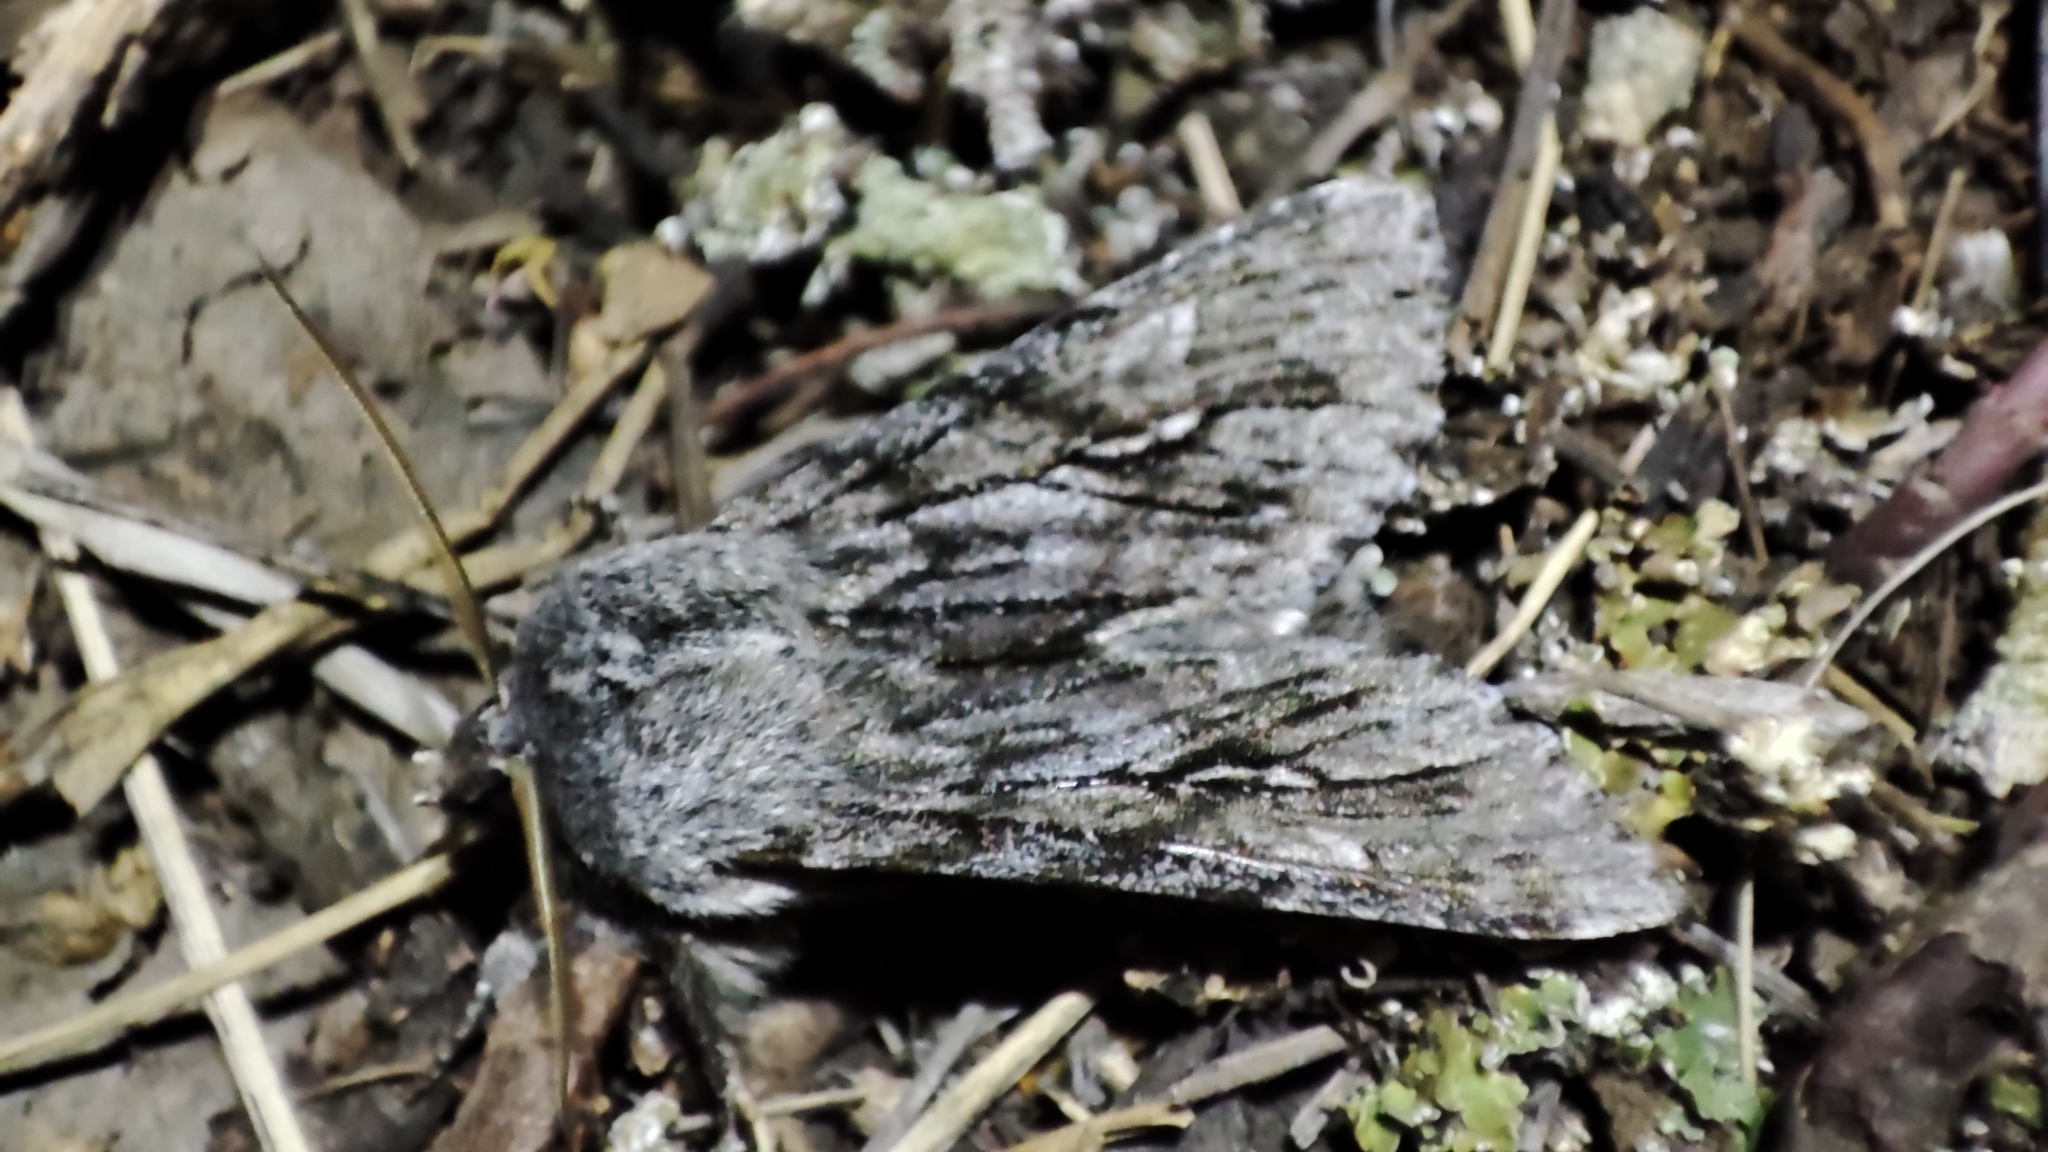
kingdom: Animalia
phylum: Arthropoda
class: Insecta
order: Lepidoptera
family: Noctuidae
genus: Brachionycha
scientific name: Brachionycha nubeculosa
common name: Rannoch sprawler
